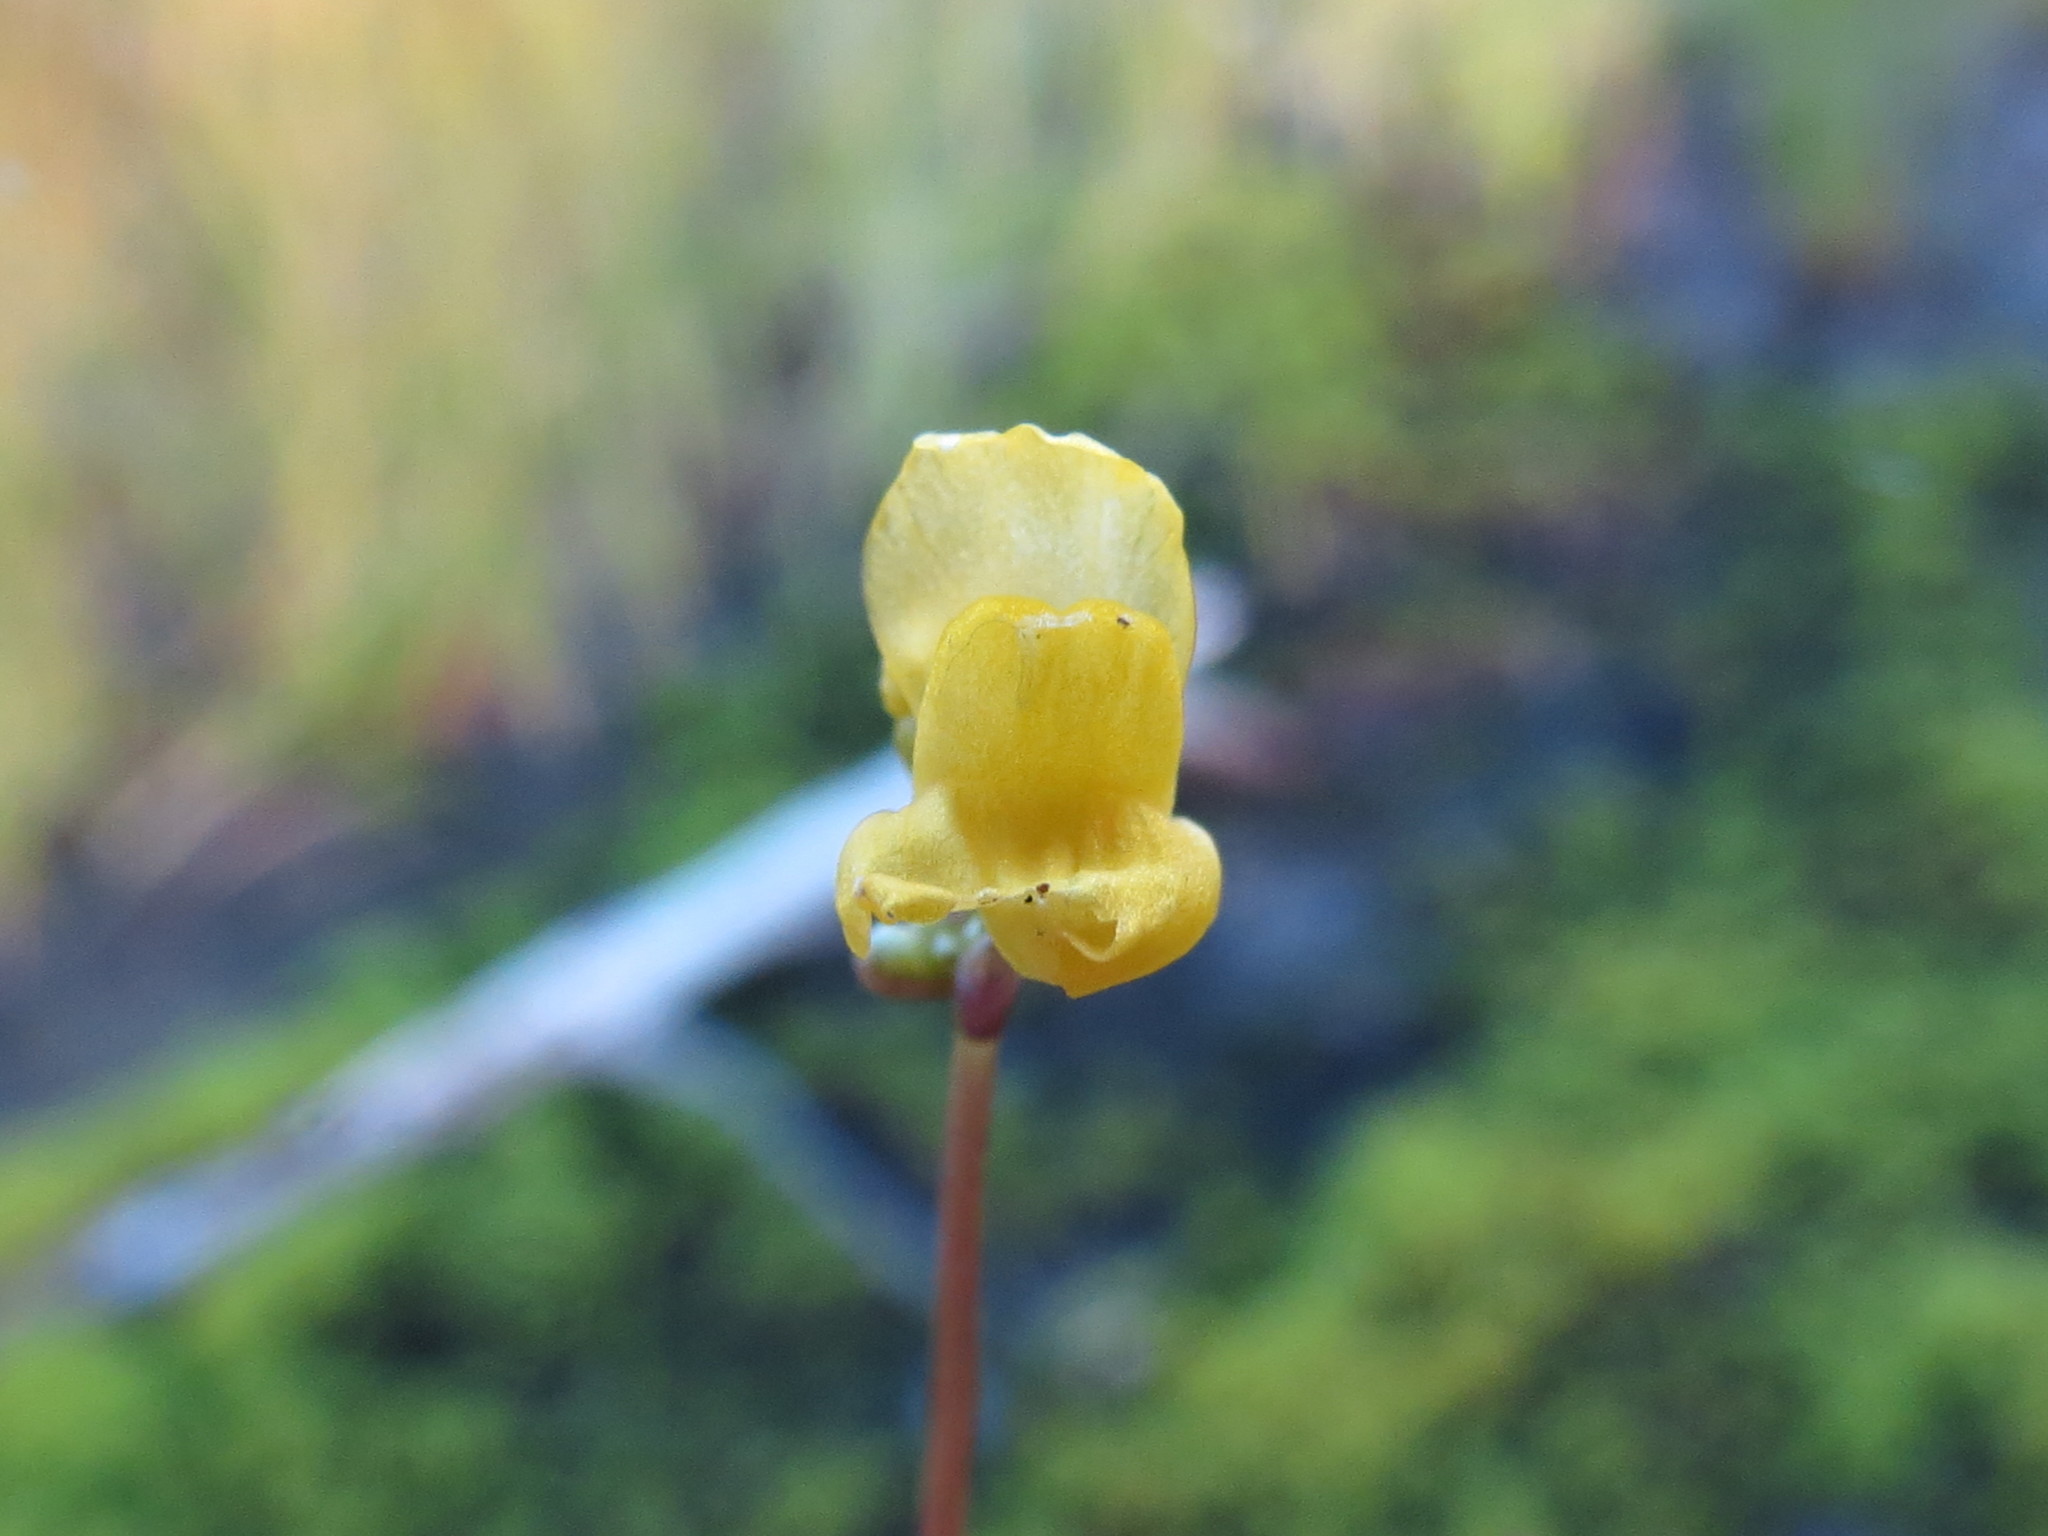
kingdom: Plantae
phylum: Tracheophyta
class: Magnoliopsida
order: Lamiales
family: Lentibulariaceae
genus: Utricularia
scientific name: Utricularia geminiscapa
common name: Hidden-fruit bladderwort
